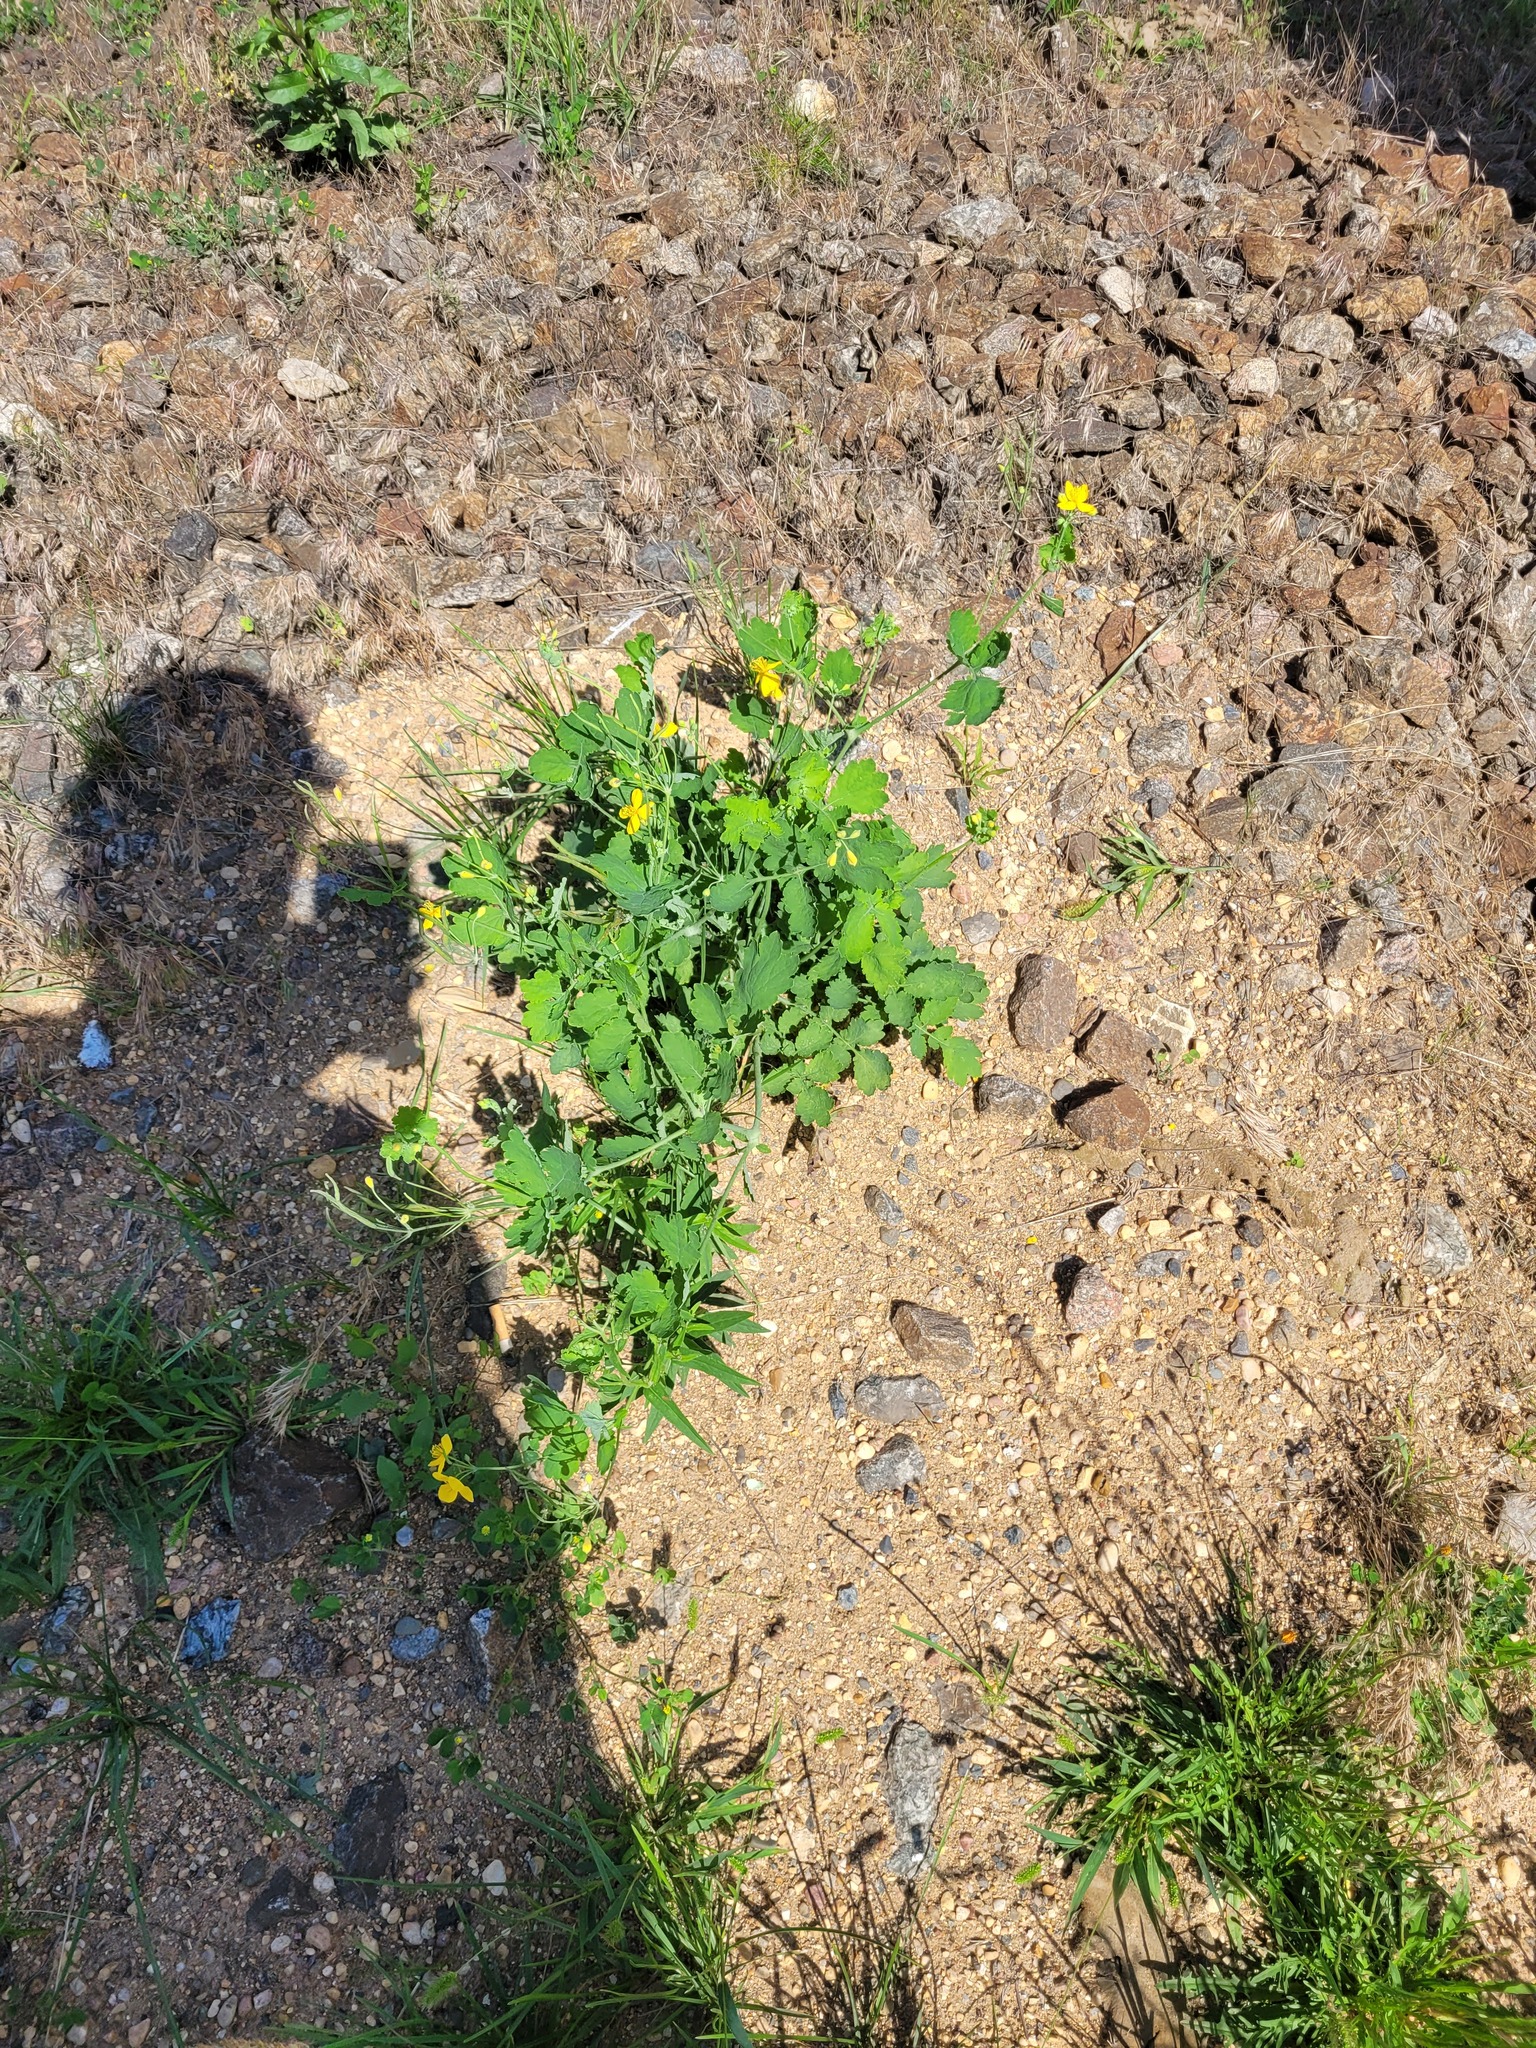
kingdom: Plantae
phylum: Tracheophyta
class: Magnoliopsida
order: Ranunculales
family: Papaveraceae
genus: Chelidonium
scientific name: Chelidonium majus
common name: Greater celandine
